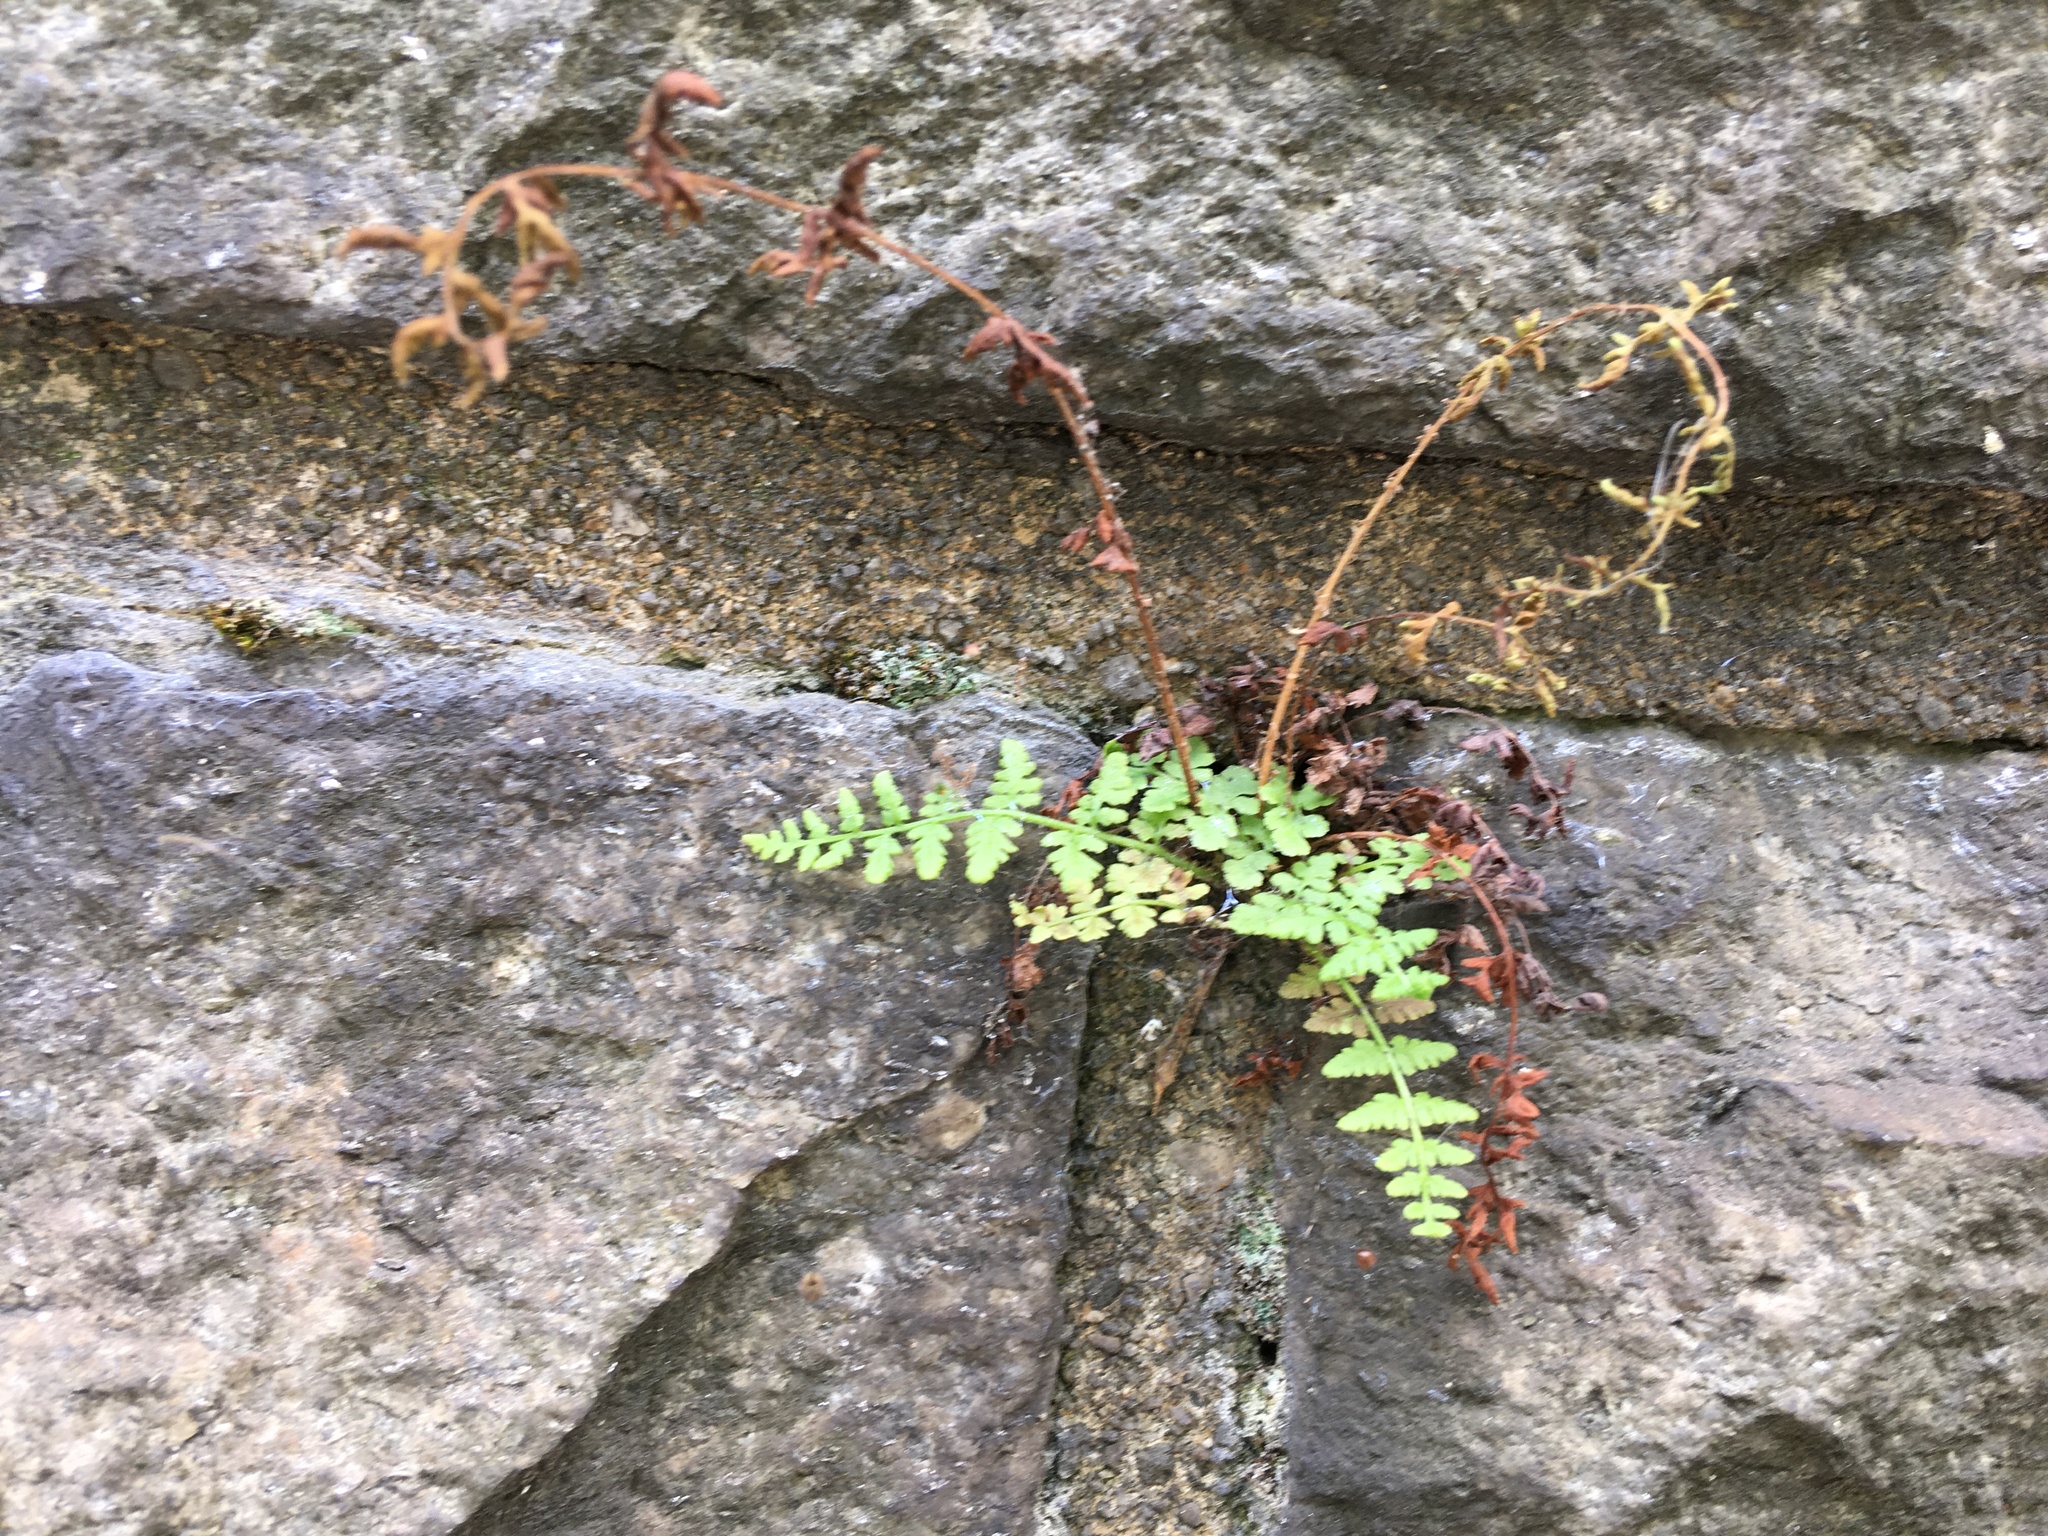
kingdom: Plantae
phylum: Tracheophyta
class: Polypodiopsida
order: Polypodiales
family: Woodsiaceae
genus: Physematium
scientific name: Physematium obtusum
